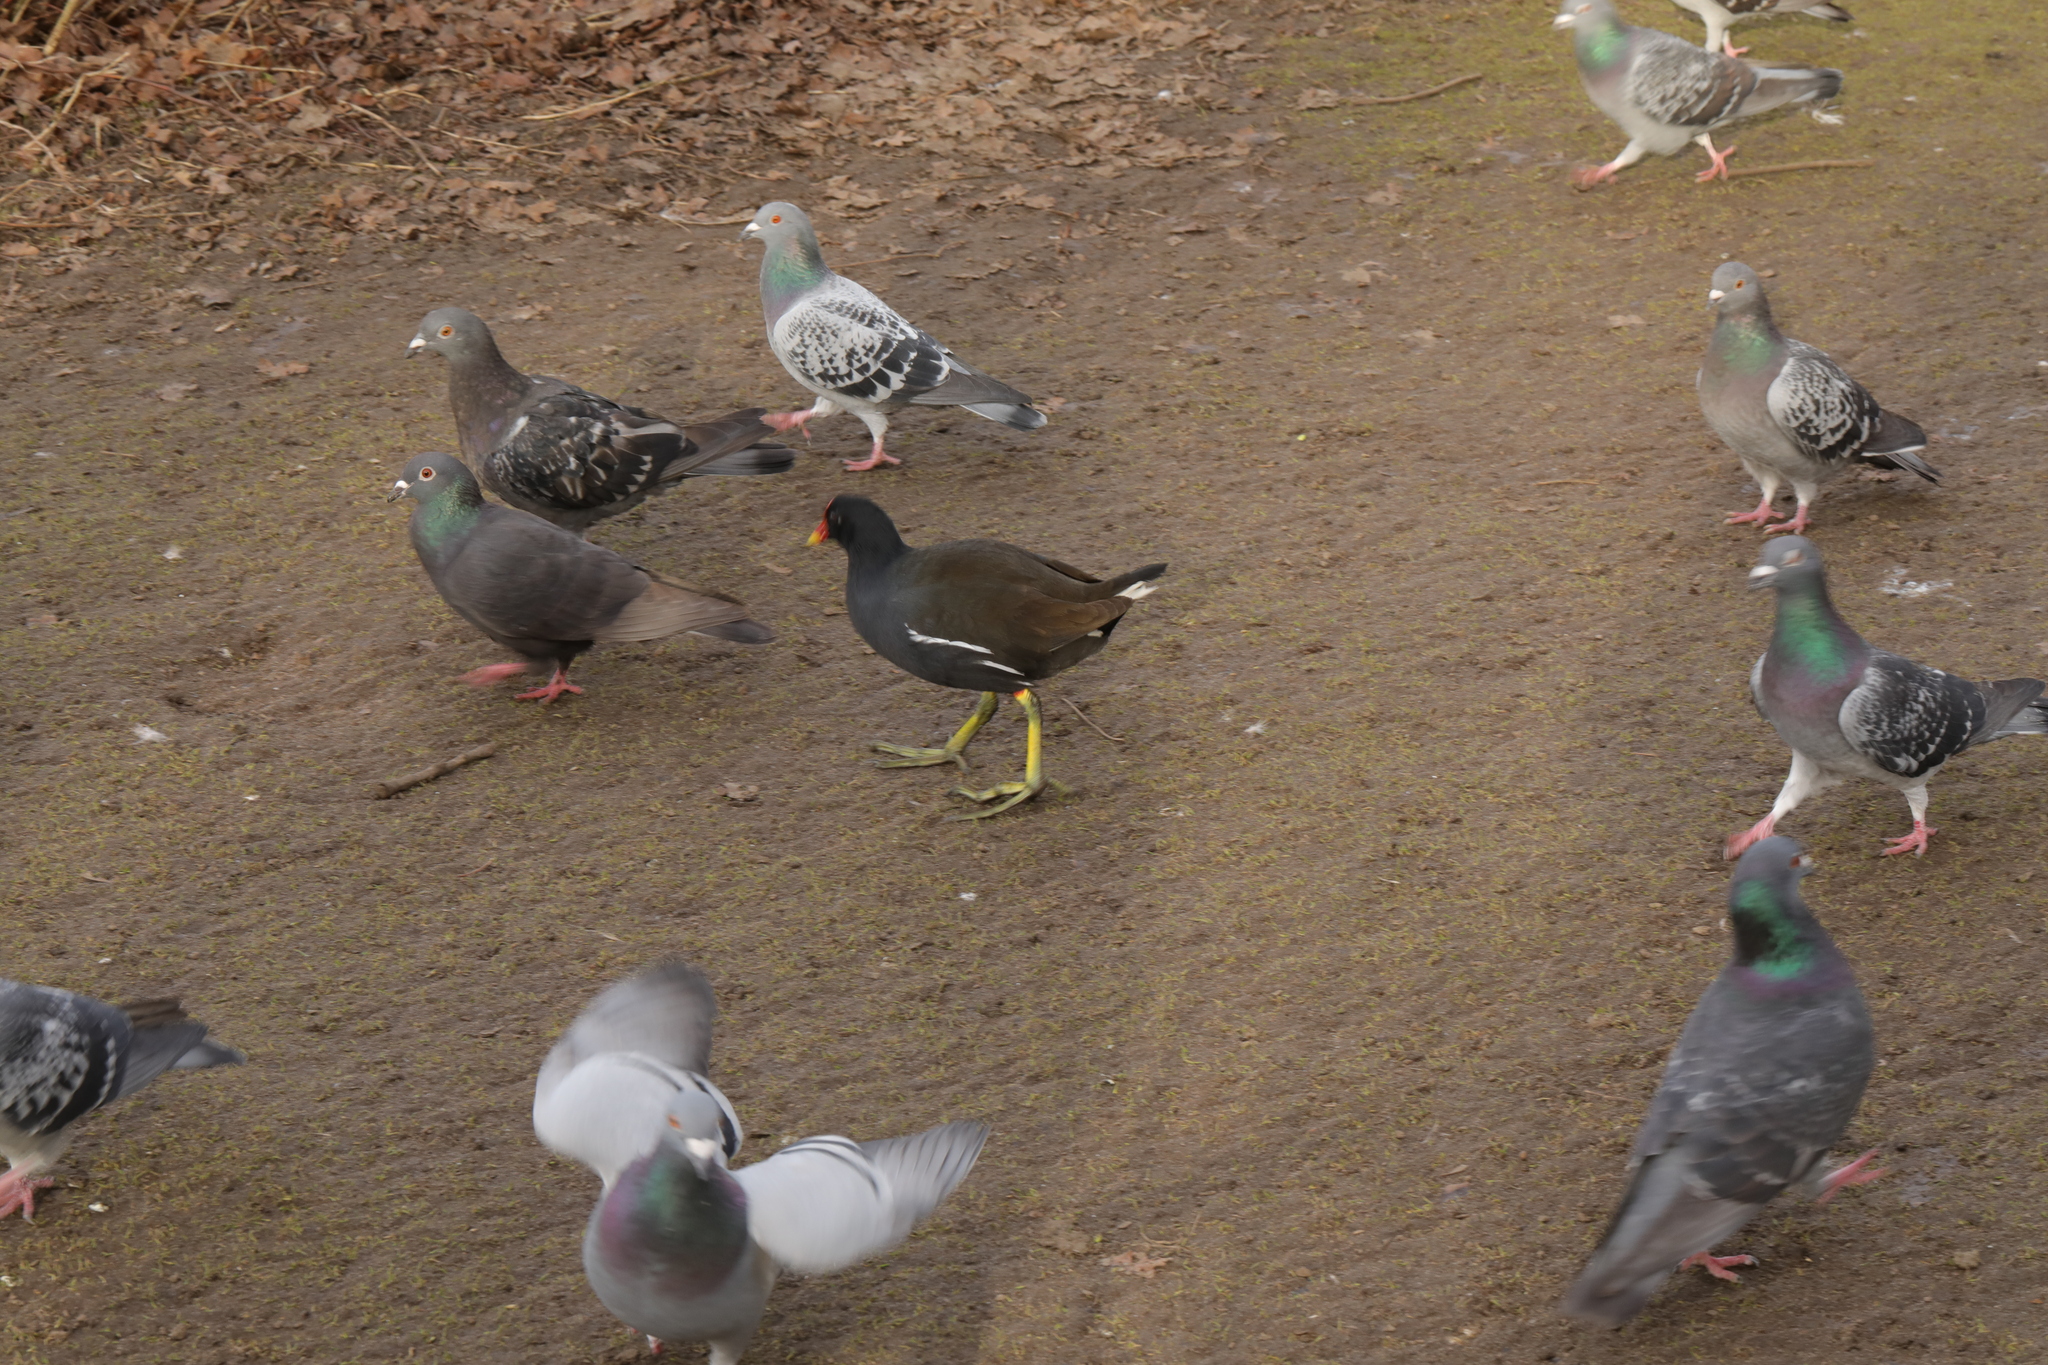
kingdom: Animalia
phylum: Chordata
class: Aves
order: Gruiformes
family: Rallidae
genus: Gallinula
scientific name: Gallinula chloropus
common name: Common moorhen
